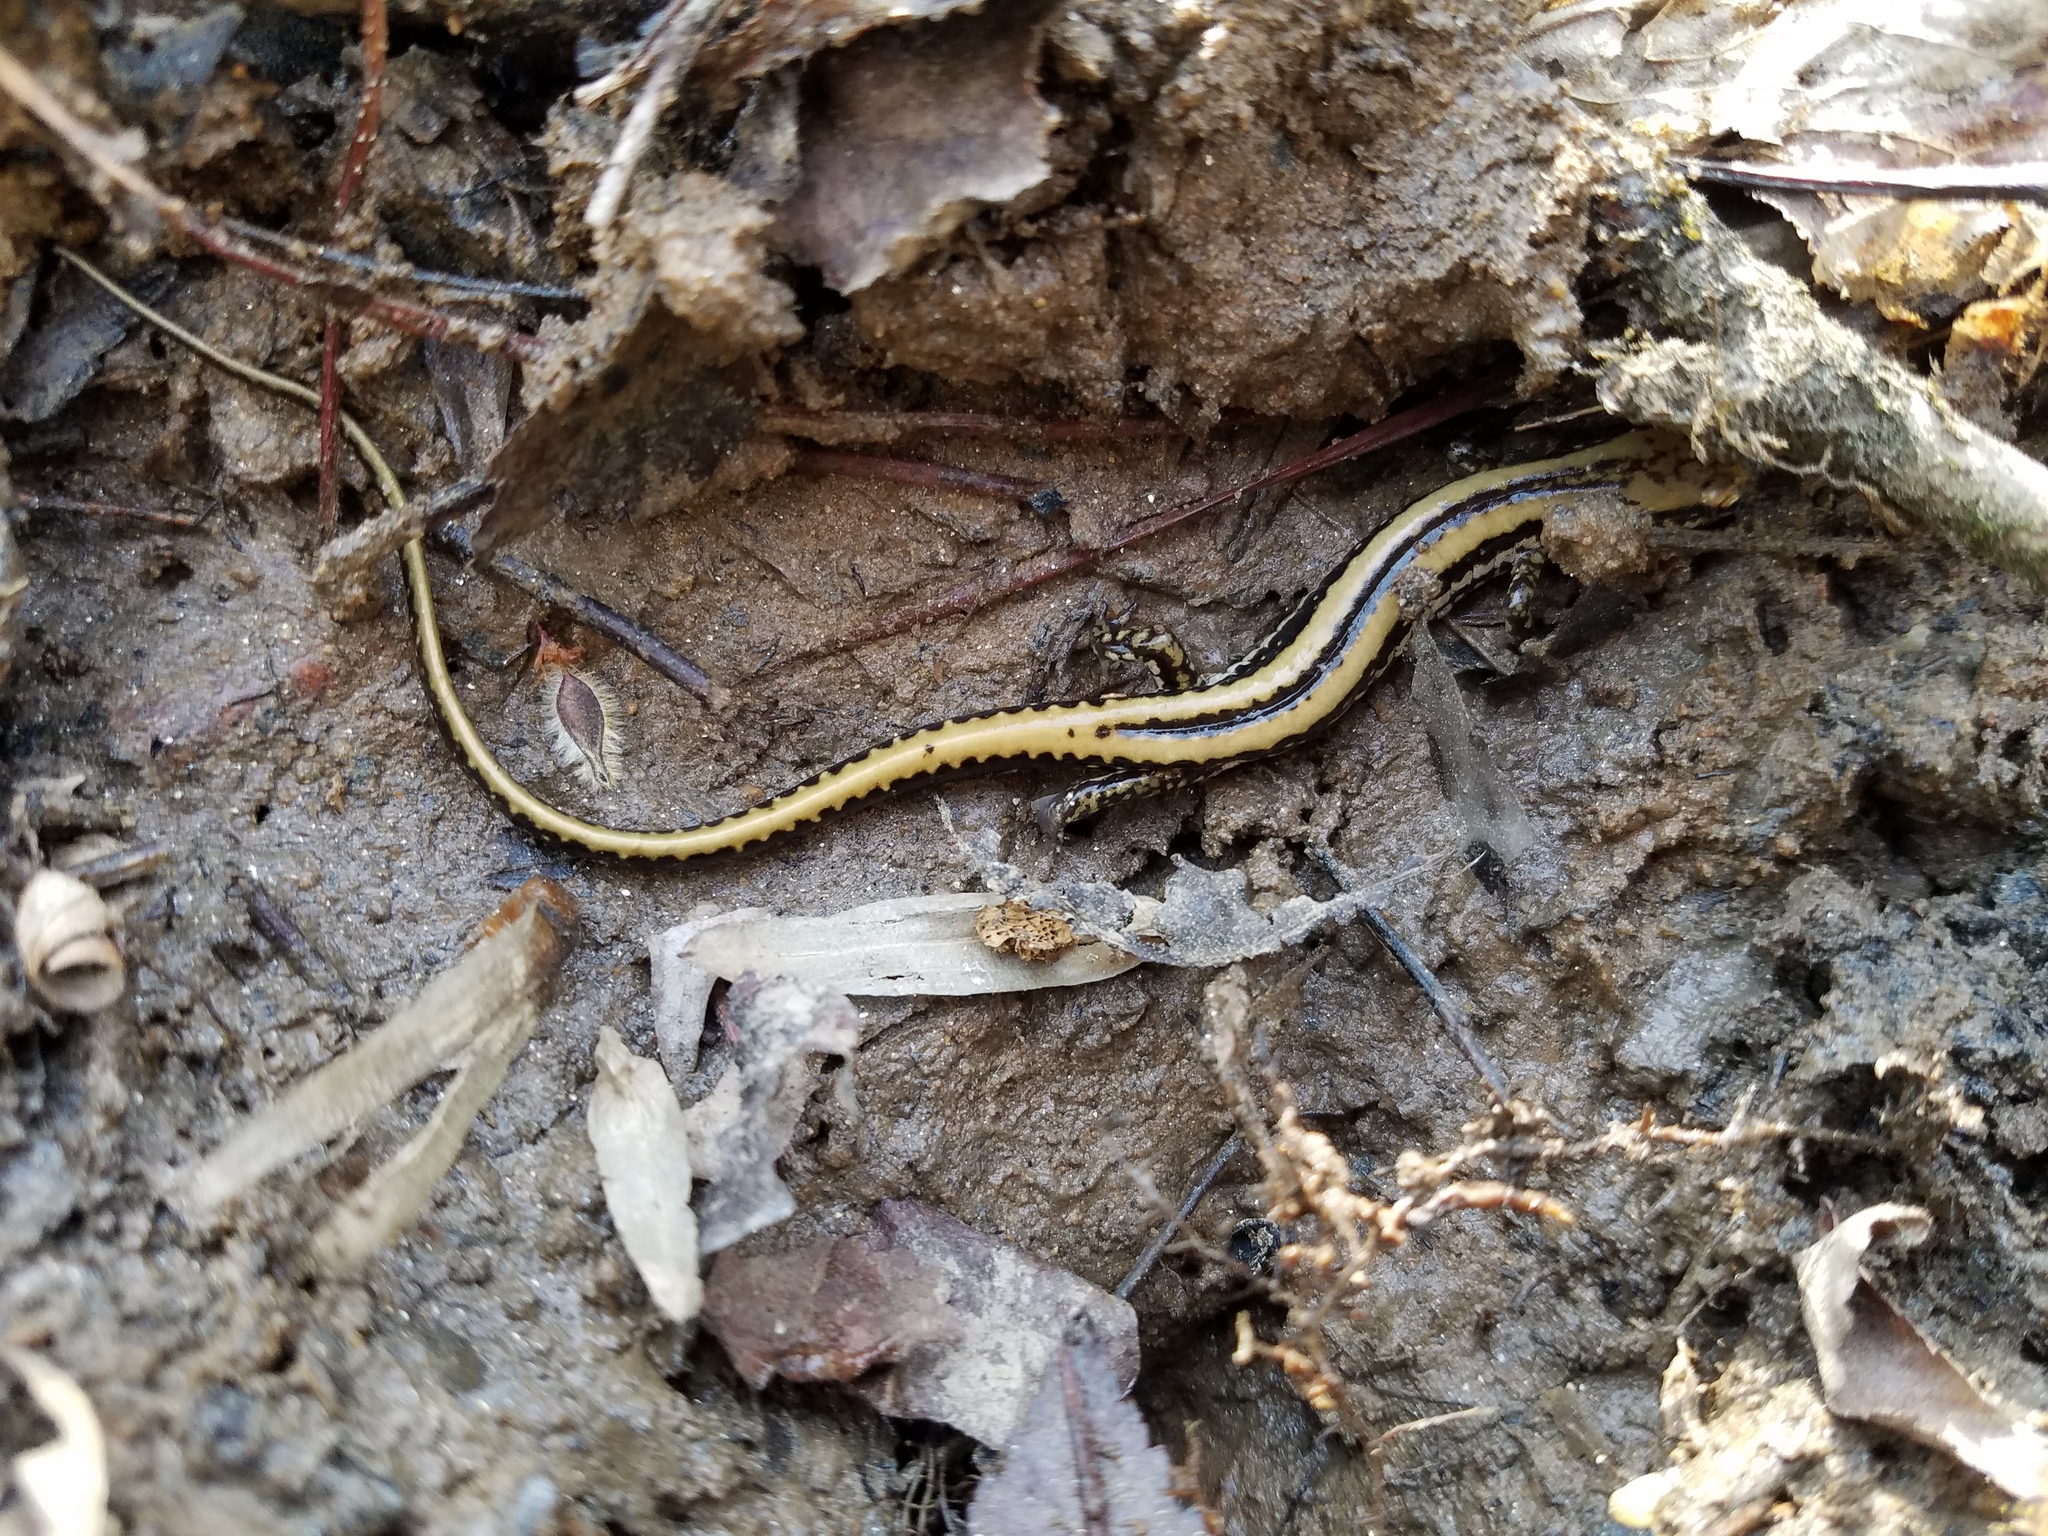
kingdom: Animalia
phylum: Chordata
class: Amphibia
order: Caudata
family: Plethodontidae
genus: Eurycea
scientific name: Eurycea guttolineata
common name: Three-lined salamander
